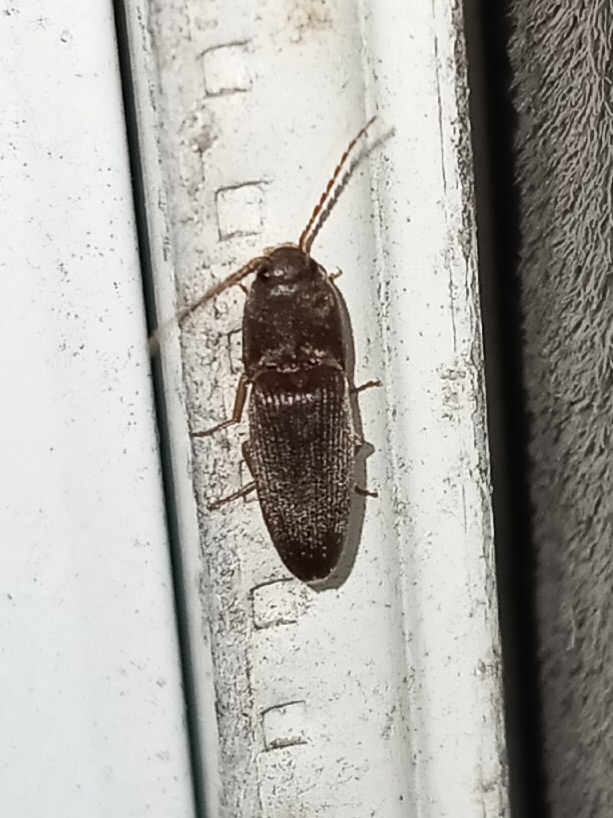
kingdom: Animalia
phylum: Arthropoda
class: Insecta
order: Coleoptera
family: Elateridae
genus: Conoderus
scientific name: Conoderus exsul
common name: Click beetle
